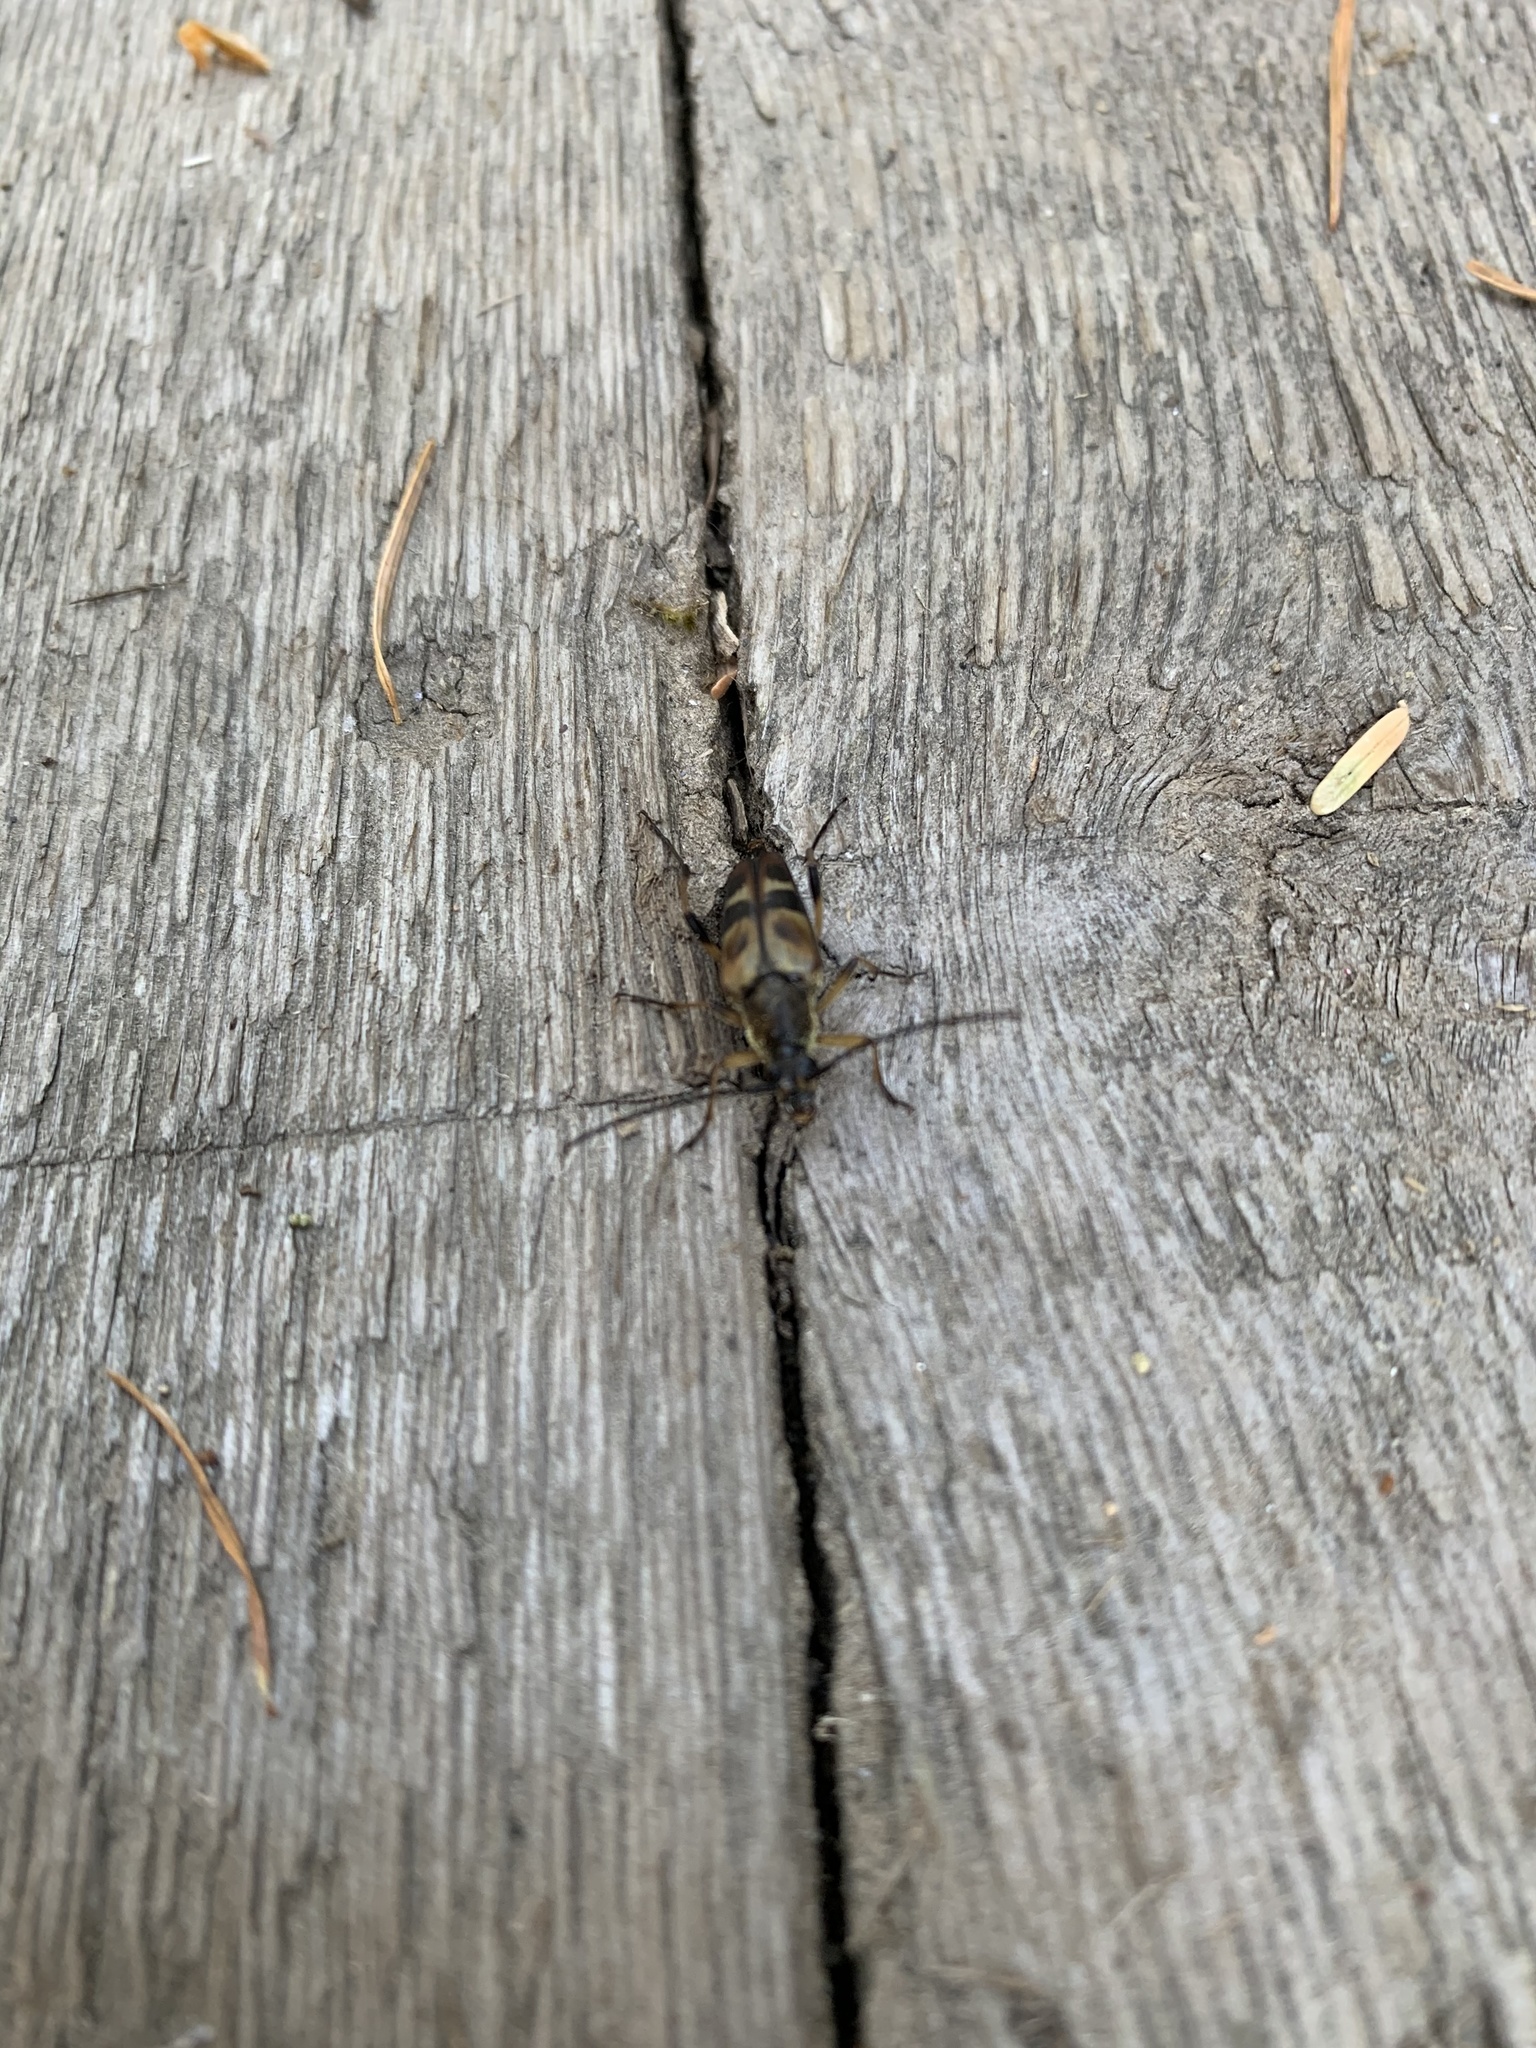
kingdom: Animalia
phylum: Arthropoda
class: Insecta
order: Coleoptera
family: Cerambycidae
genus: Etorofus
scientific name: Etorofus obliteratus
